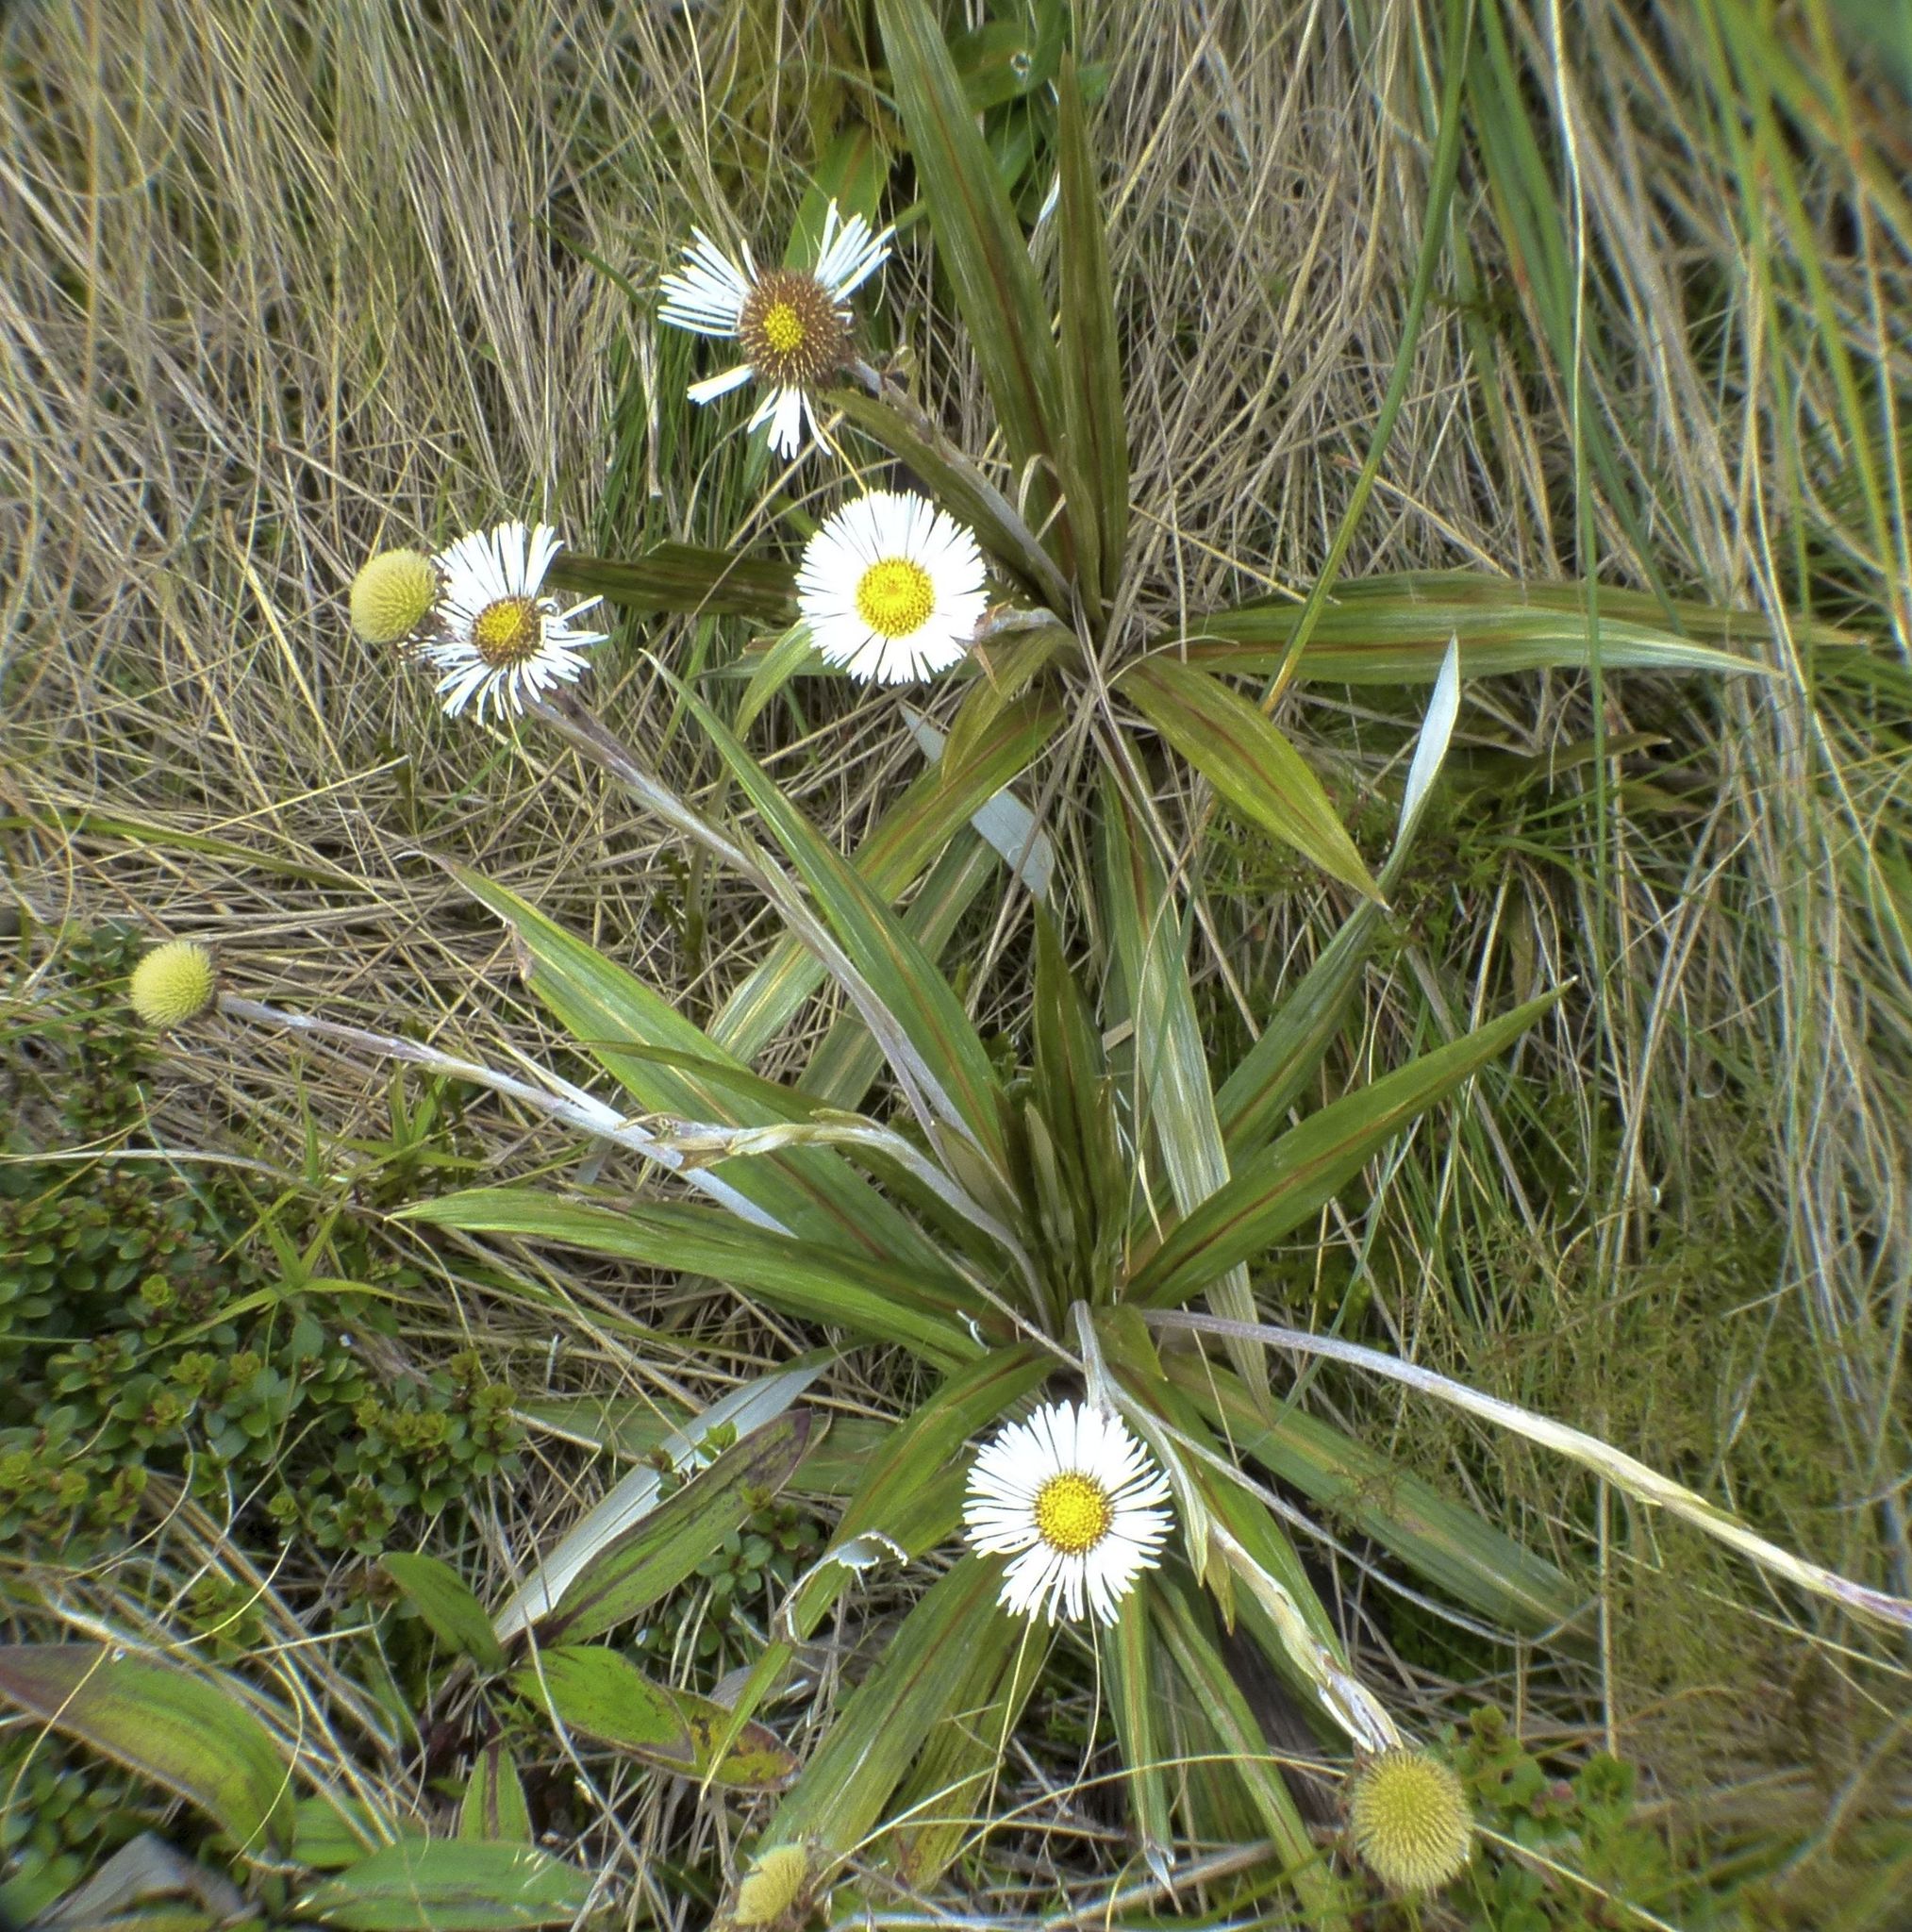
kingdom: Plantae
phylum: Tracheophyta
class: Magnoliopsida
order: Asterales
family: Asteraceae
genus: Celmisia
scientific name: Celmisia coriacea
